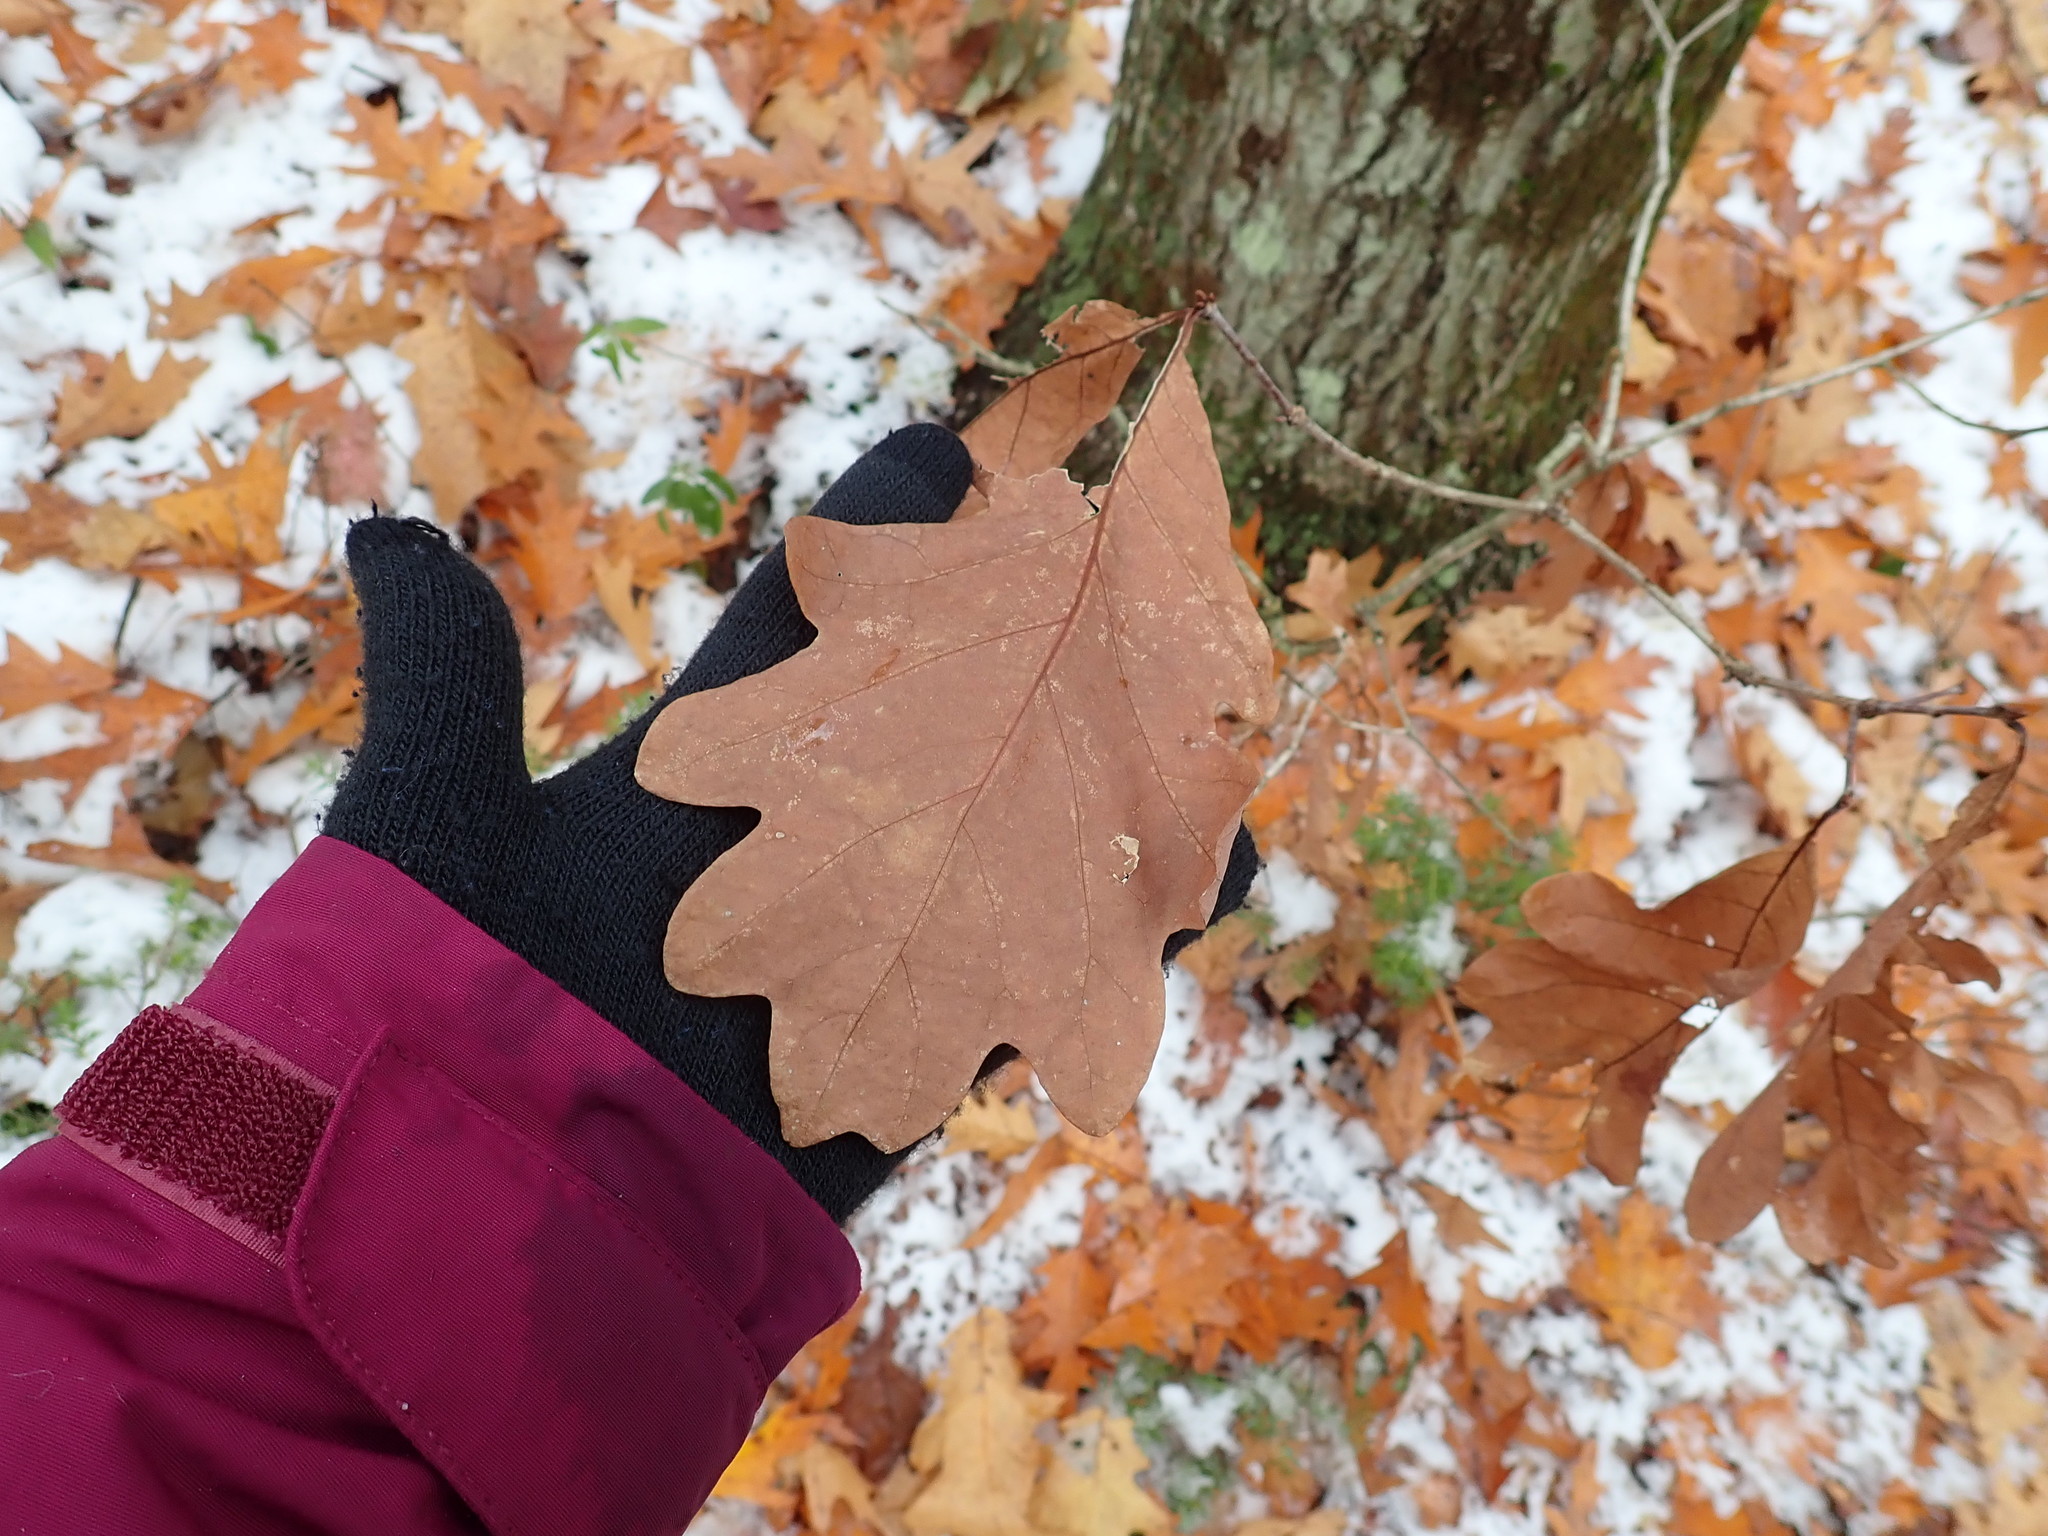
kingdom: Plantae
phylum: Tracheophyta
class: Magnoliopsida
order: Fagales
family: Fagaceae
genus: Quercus
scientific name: Quercus alba
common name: White oak
